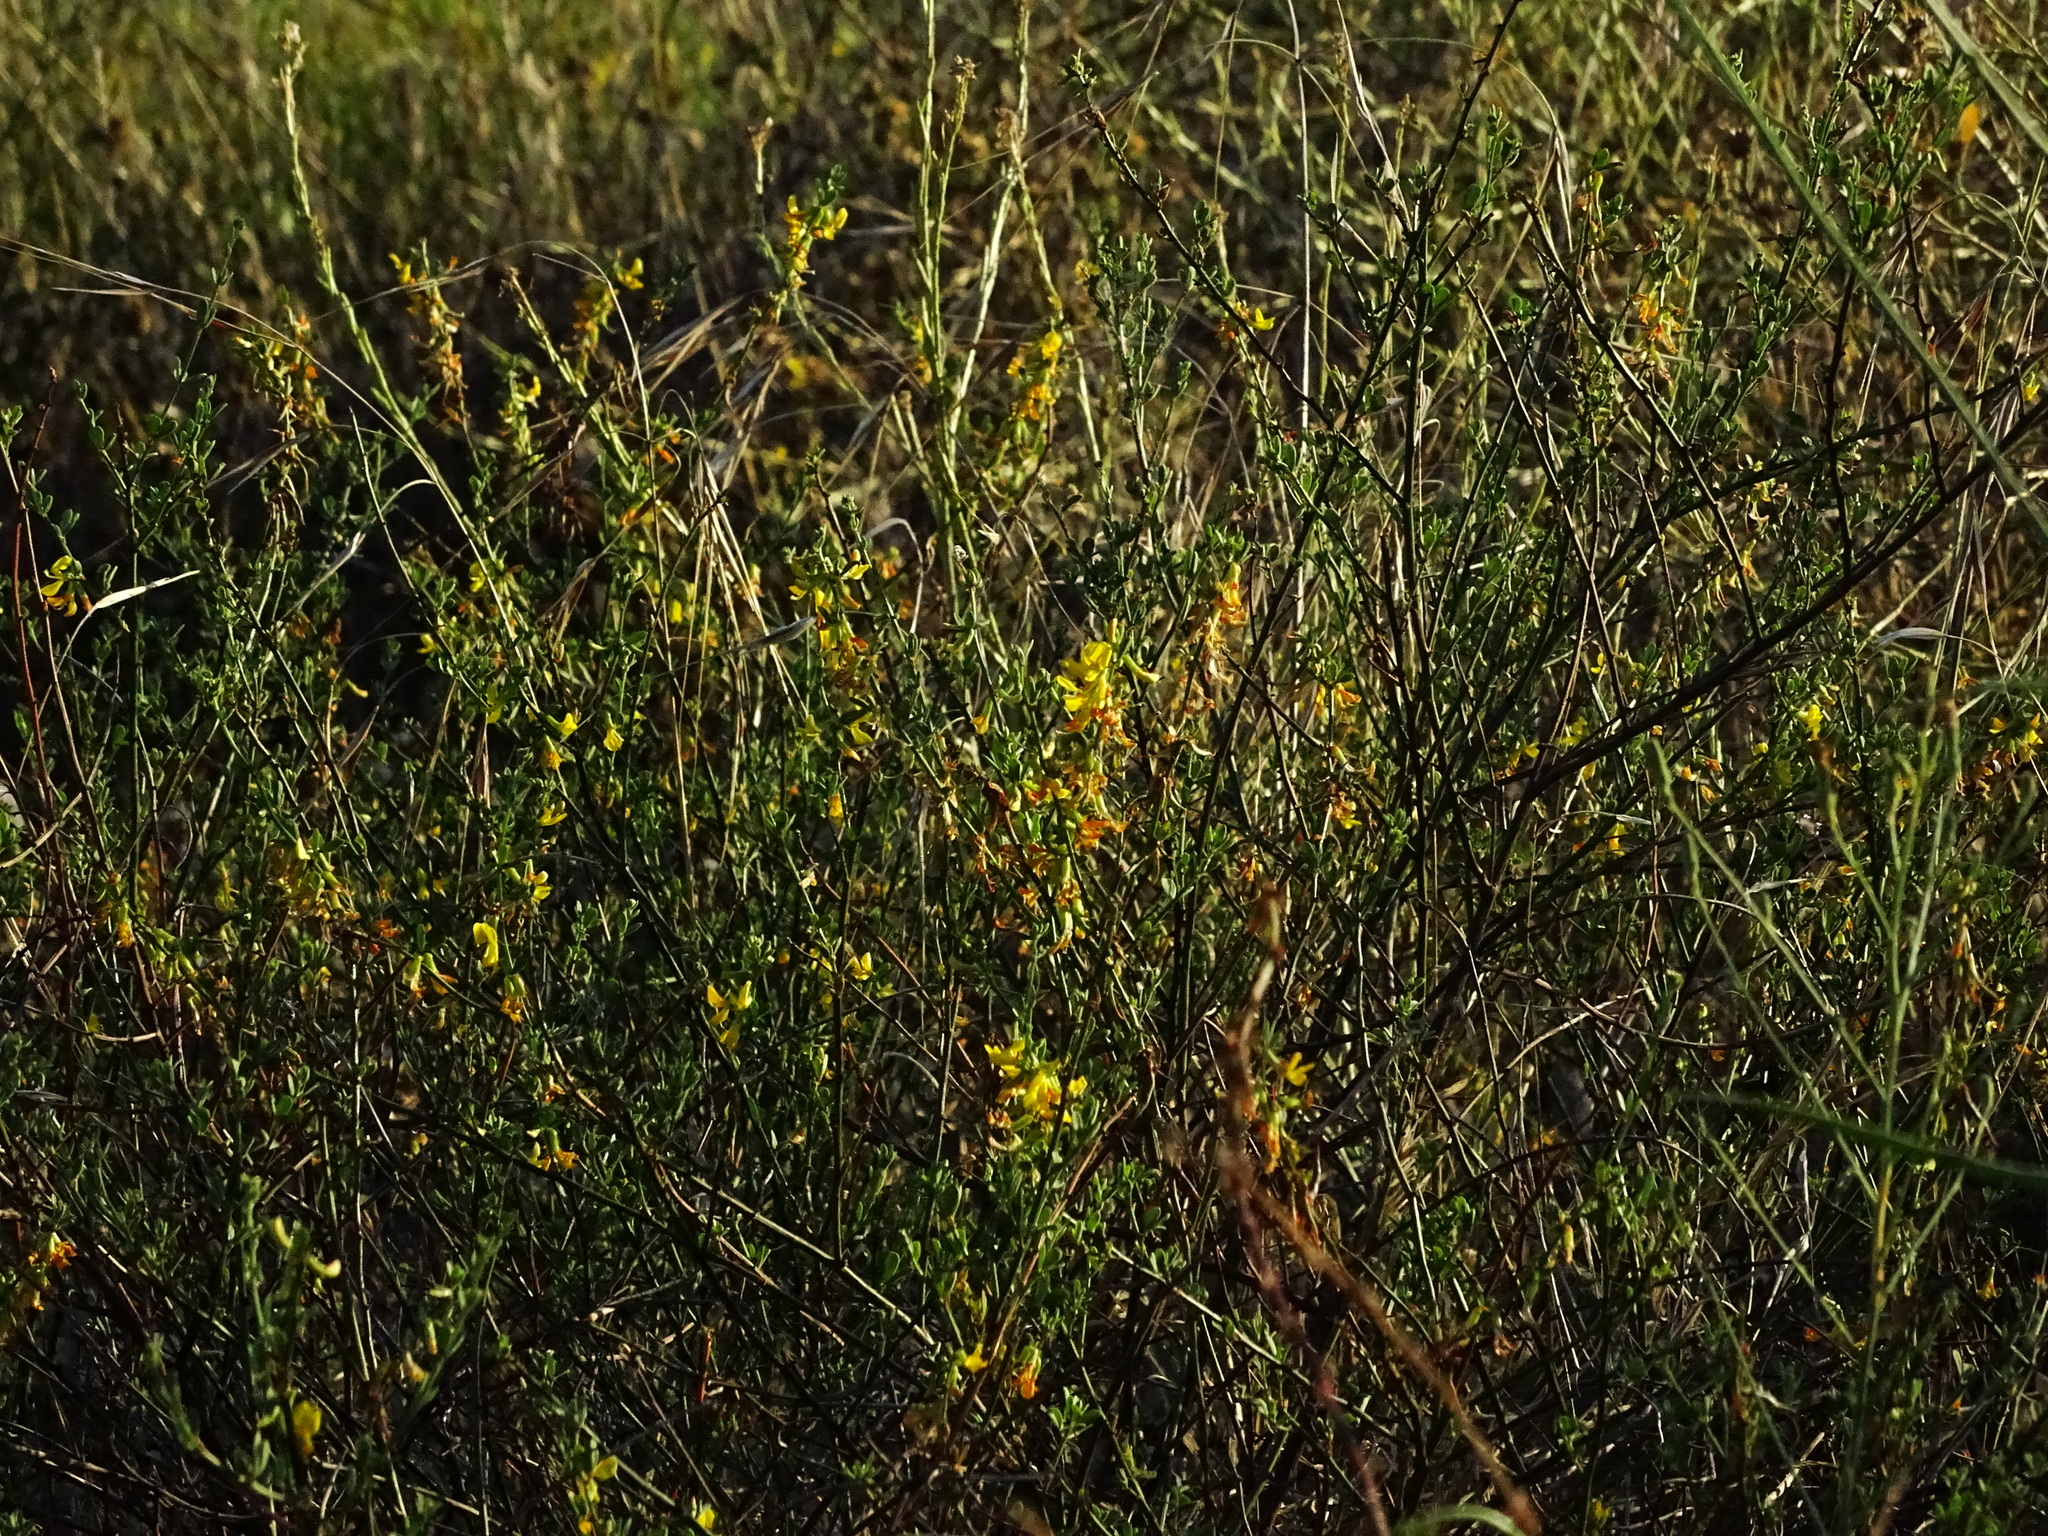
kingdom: Plantae
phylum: Tracheophyta
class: Magnoliopsida
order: Fabales
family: Fabaceae
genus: Acmispon
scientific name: Acmispon glaber
